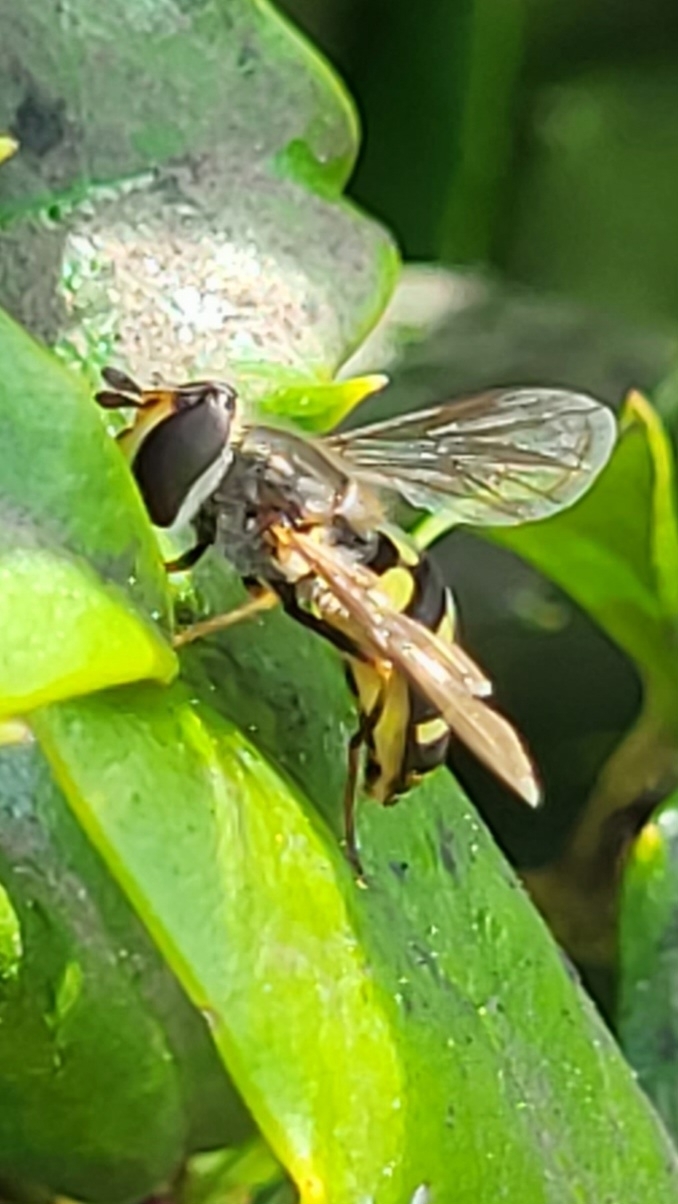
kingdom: Animalia
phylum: Arthropoda
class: Insecta
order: Diptera
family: Syrphidae
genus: Eupeodes
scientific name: Eupeodes
